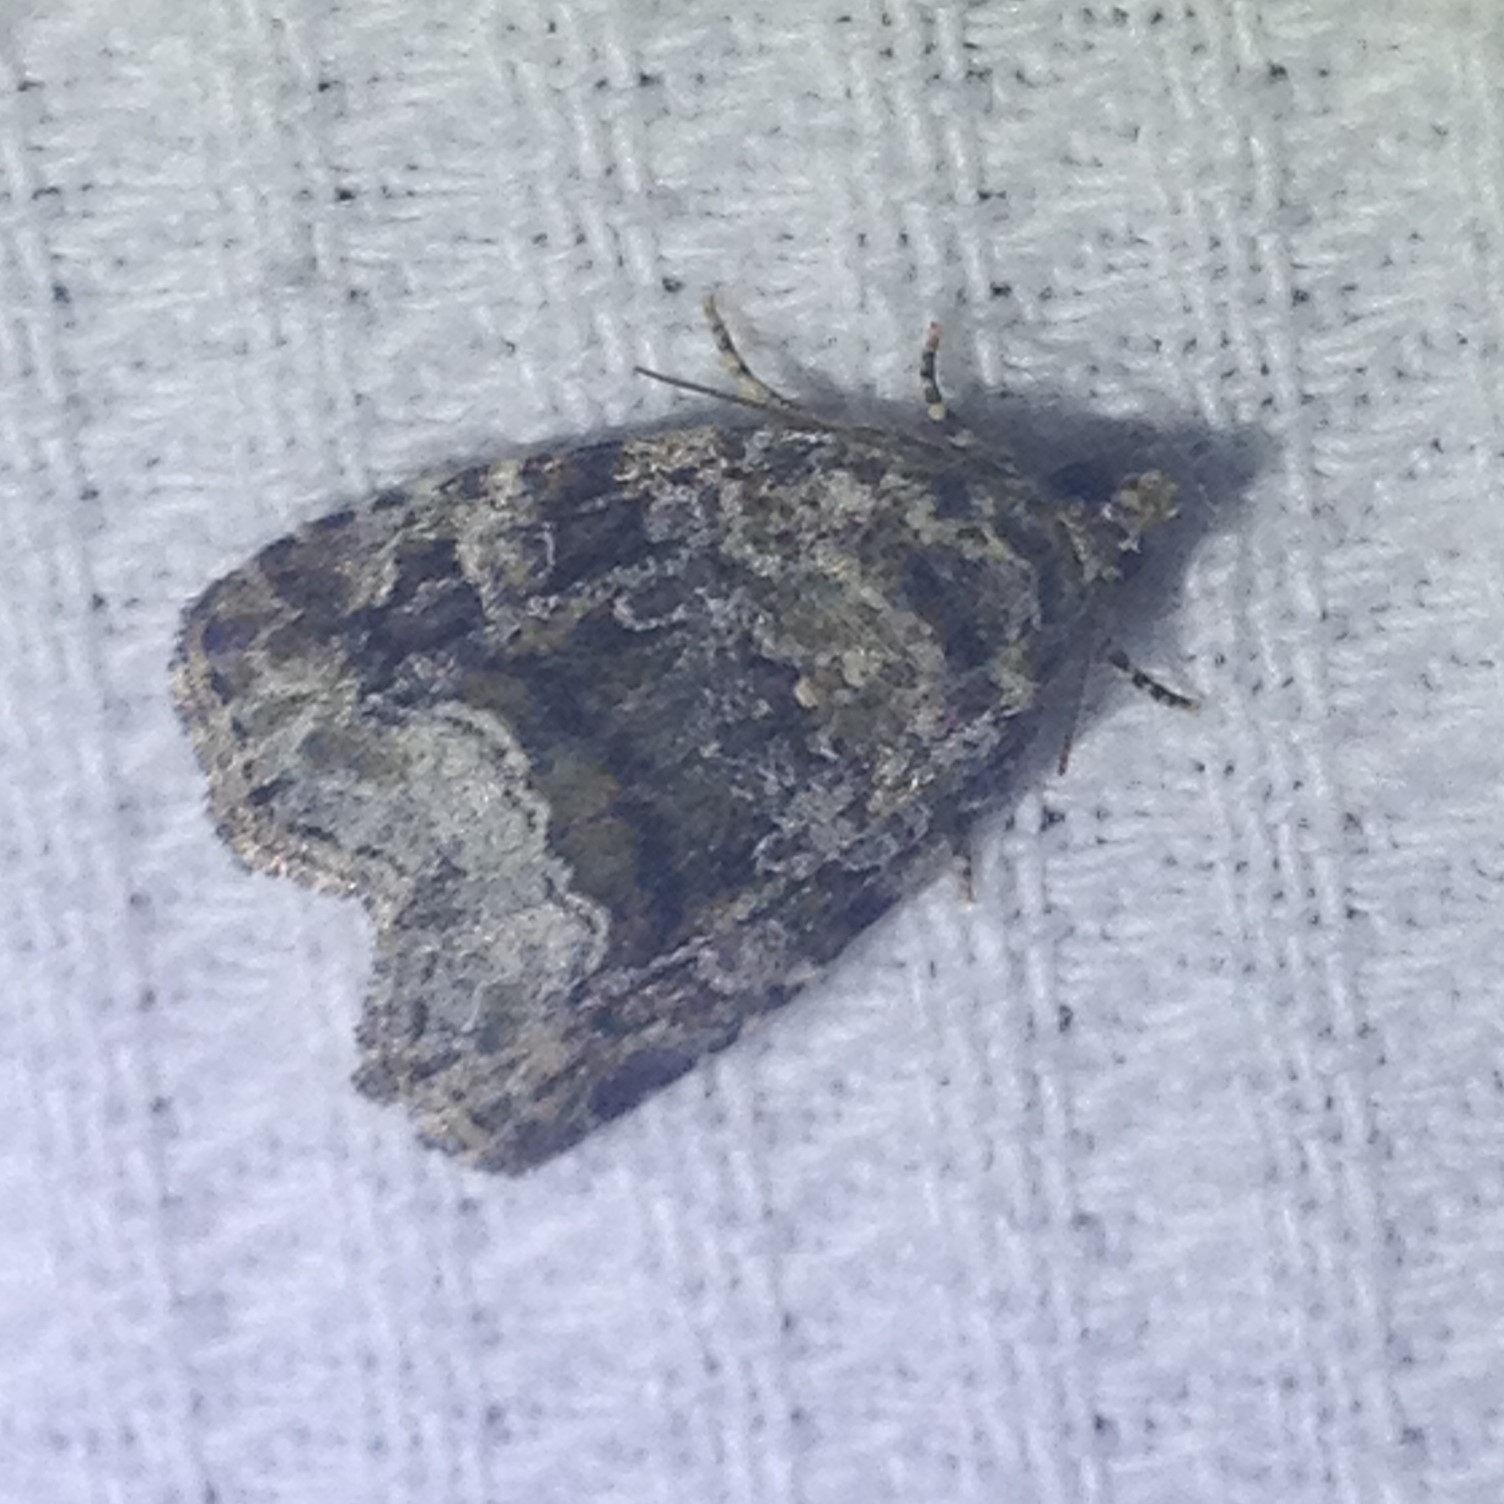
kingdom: Animalia
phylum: Arthropoda
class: Insecta
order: Lepidoptera
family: Noctuidae
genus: Protodeltote
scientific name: Protodeltote muscosula
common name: Large mossy glyph
